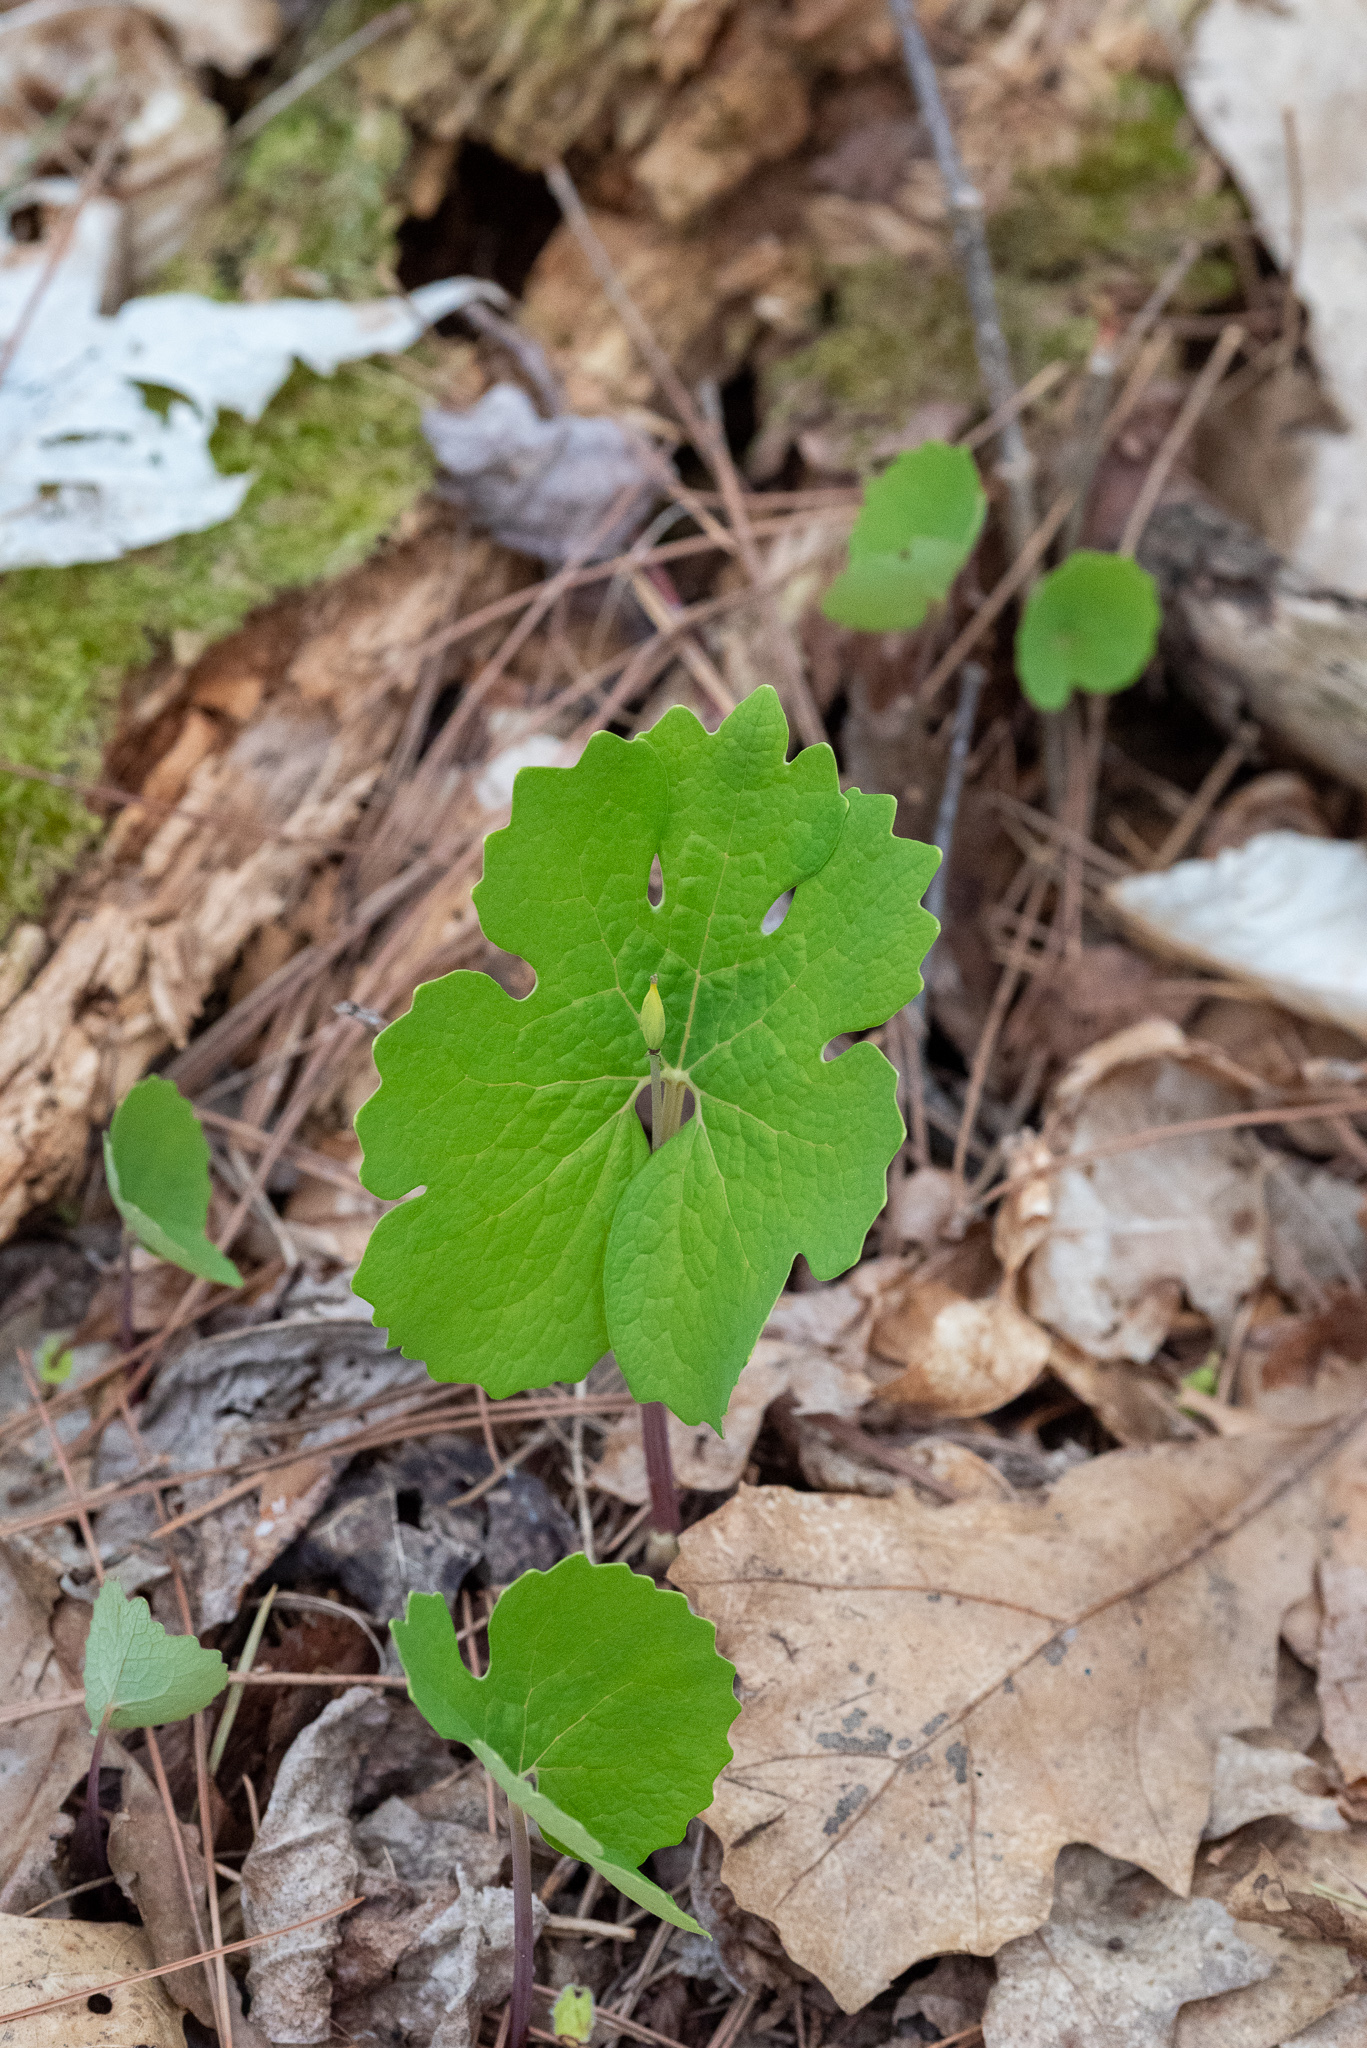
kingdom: Plantae
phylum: Tracheophyta
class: Magnoliopsida
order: Ranunculales
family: Papaveraceae
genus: Sanguinaria
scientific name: Sanguinaria canadensis
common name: Bloodroot
